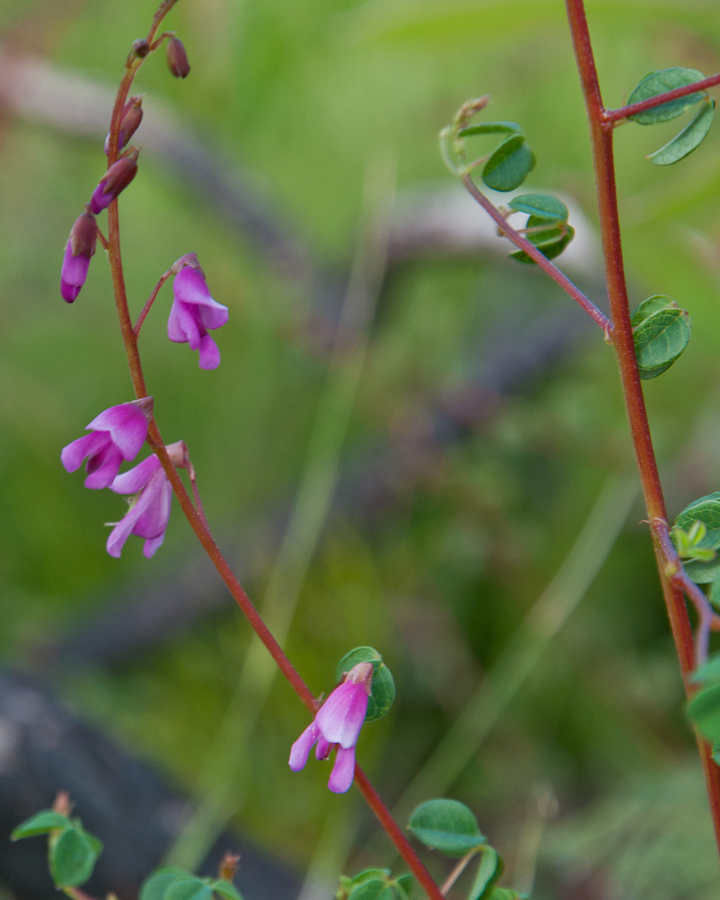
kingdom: Plantae
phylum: Tracheophyta
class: Magnoliopsida
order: Fabales
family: Fabaceae
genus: Hypocalyptus
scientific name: Hypocalyptus oxalidifolius
